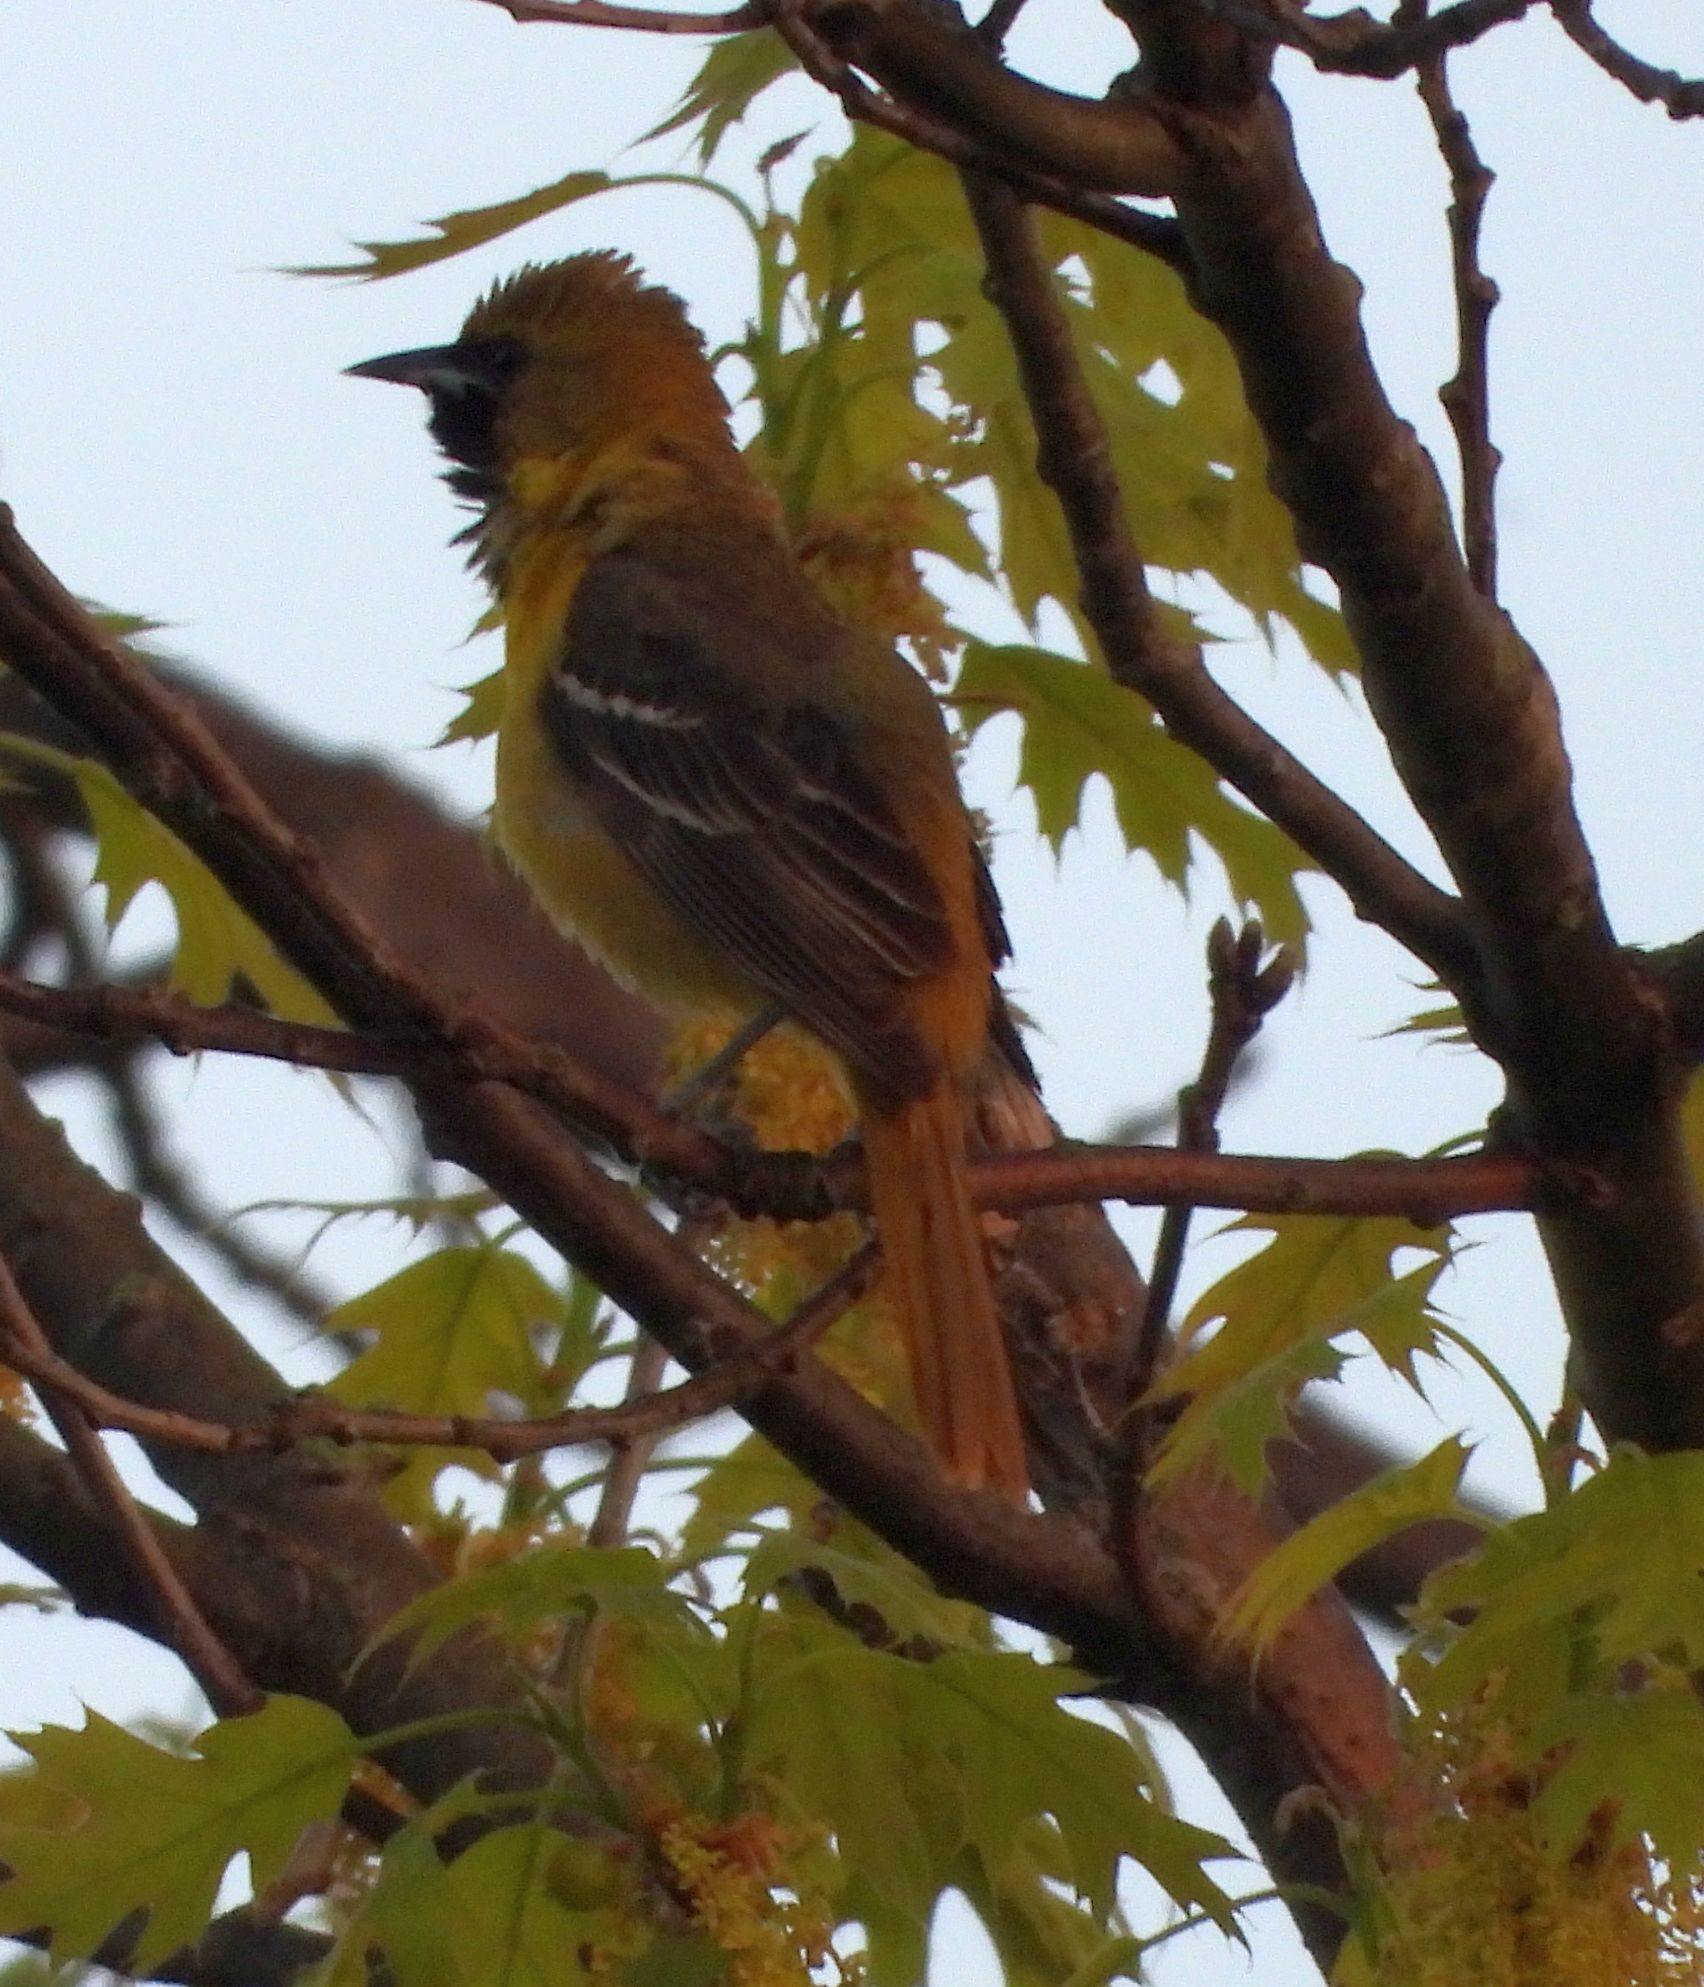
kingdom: Animalia
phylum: Chordata
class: Aves
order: Passeriformes
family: Icteridae
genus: Icterus
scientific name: Icterus spurius
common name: Orchard oriole
